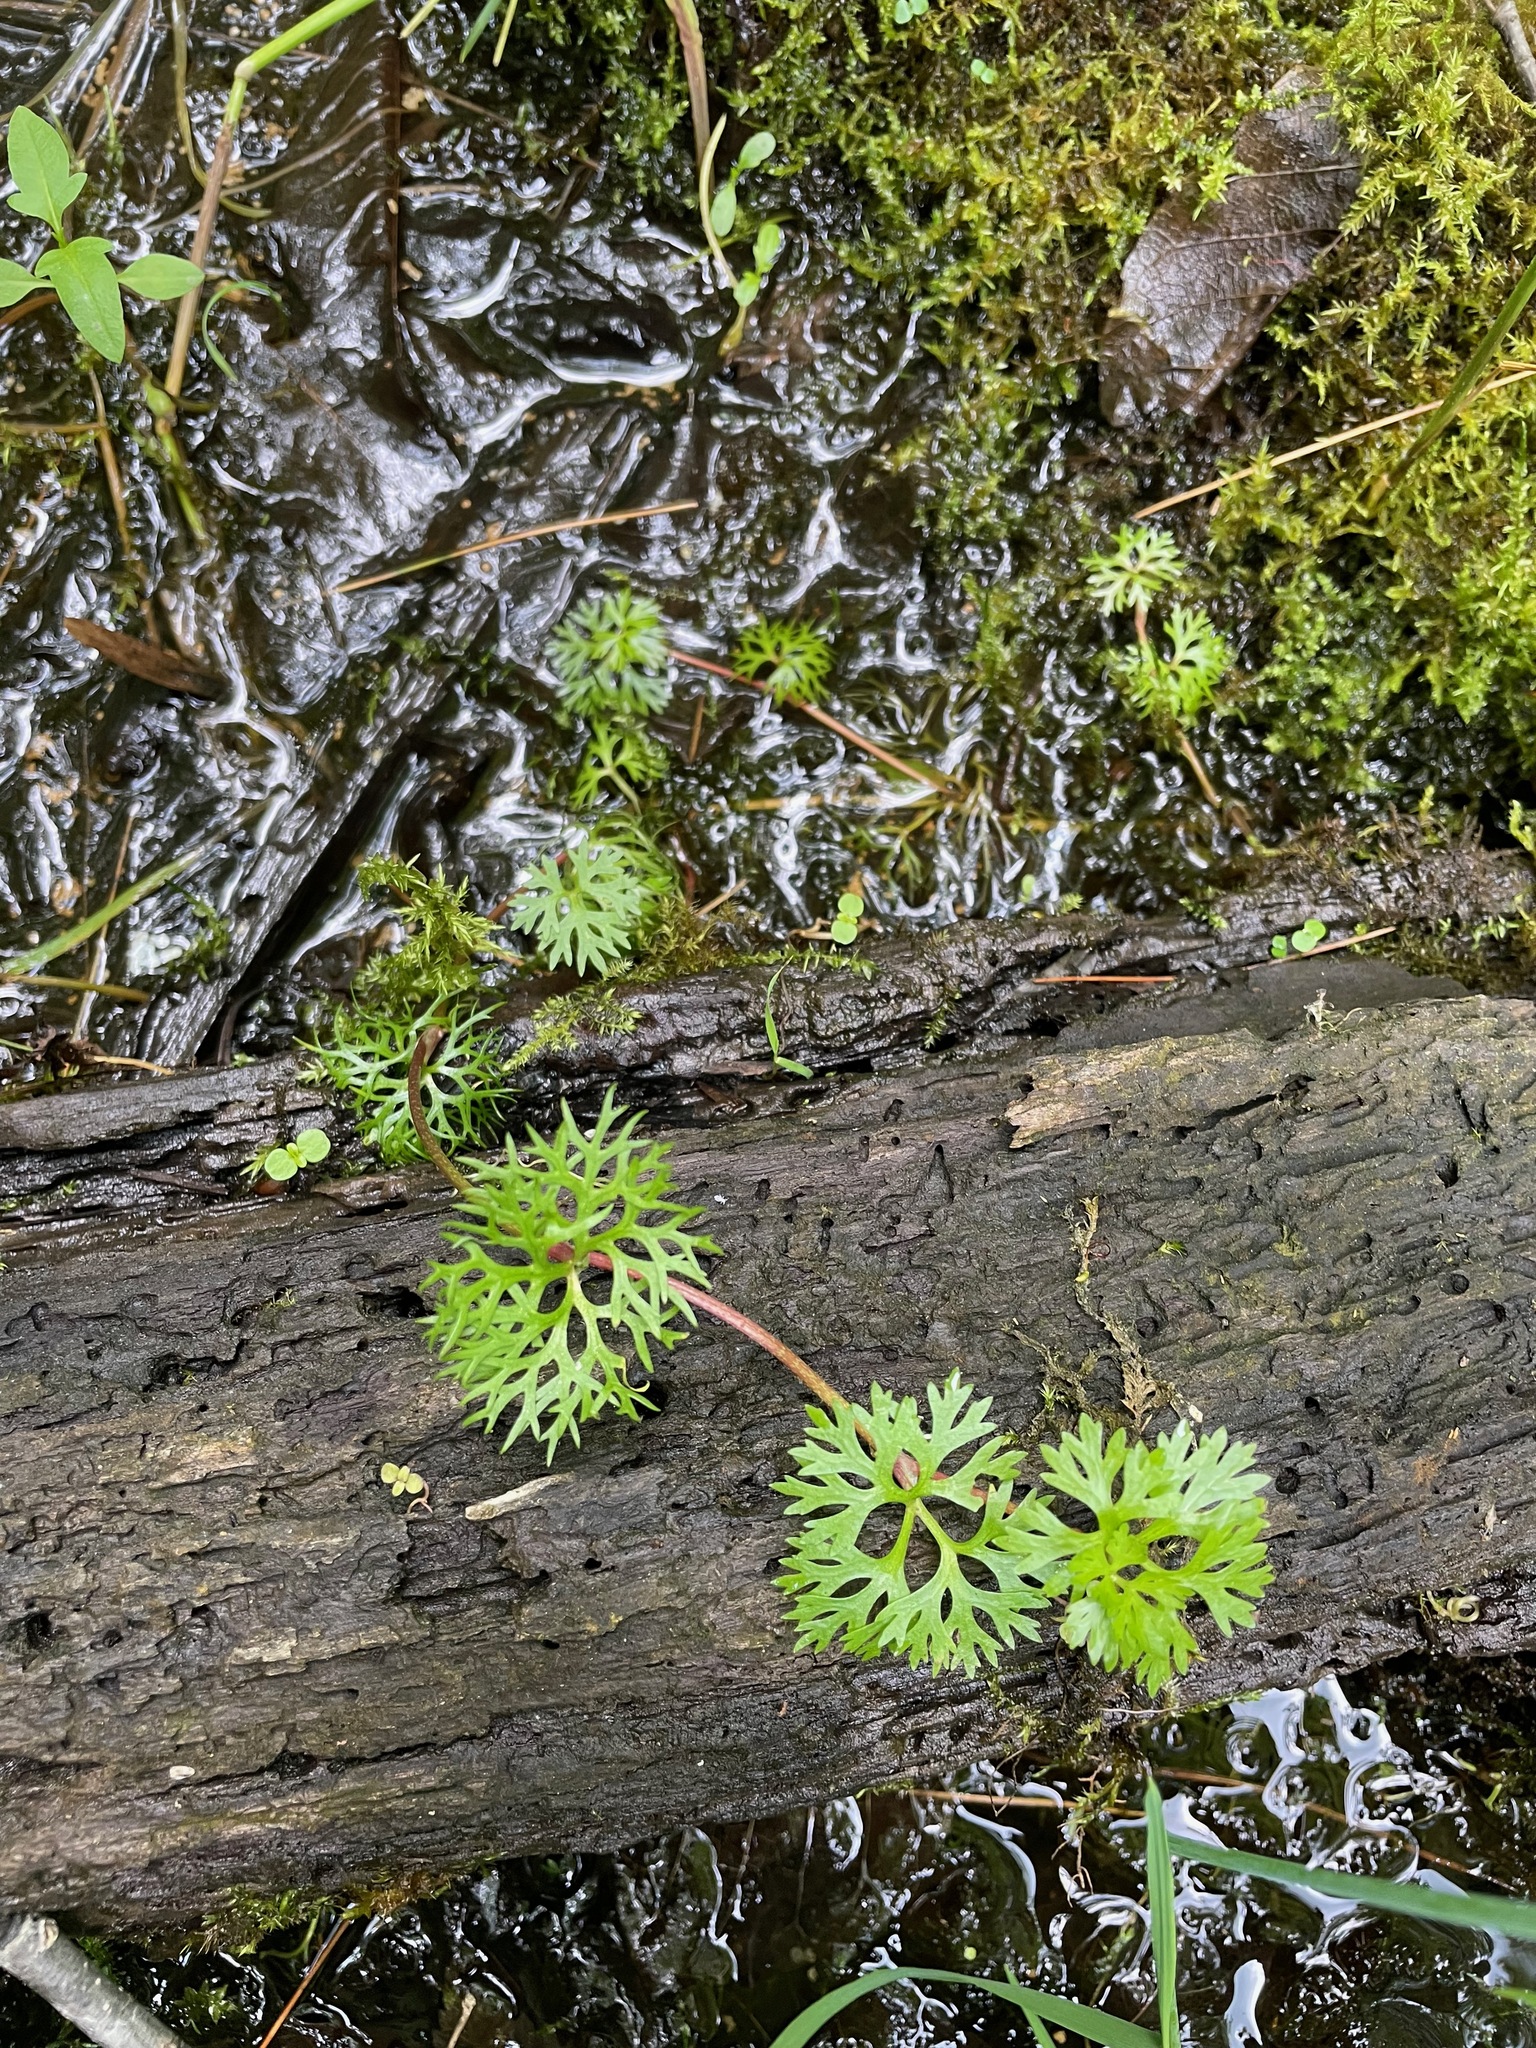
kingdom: Plantae
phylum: Tracheophyta
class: Magnoliopsida
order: Ranunculales
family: Ranunculaceae
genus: Ranunculus
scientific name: Ranunculus flabellaris
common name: Yellow water-crowfoot
